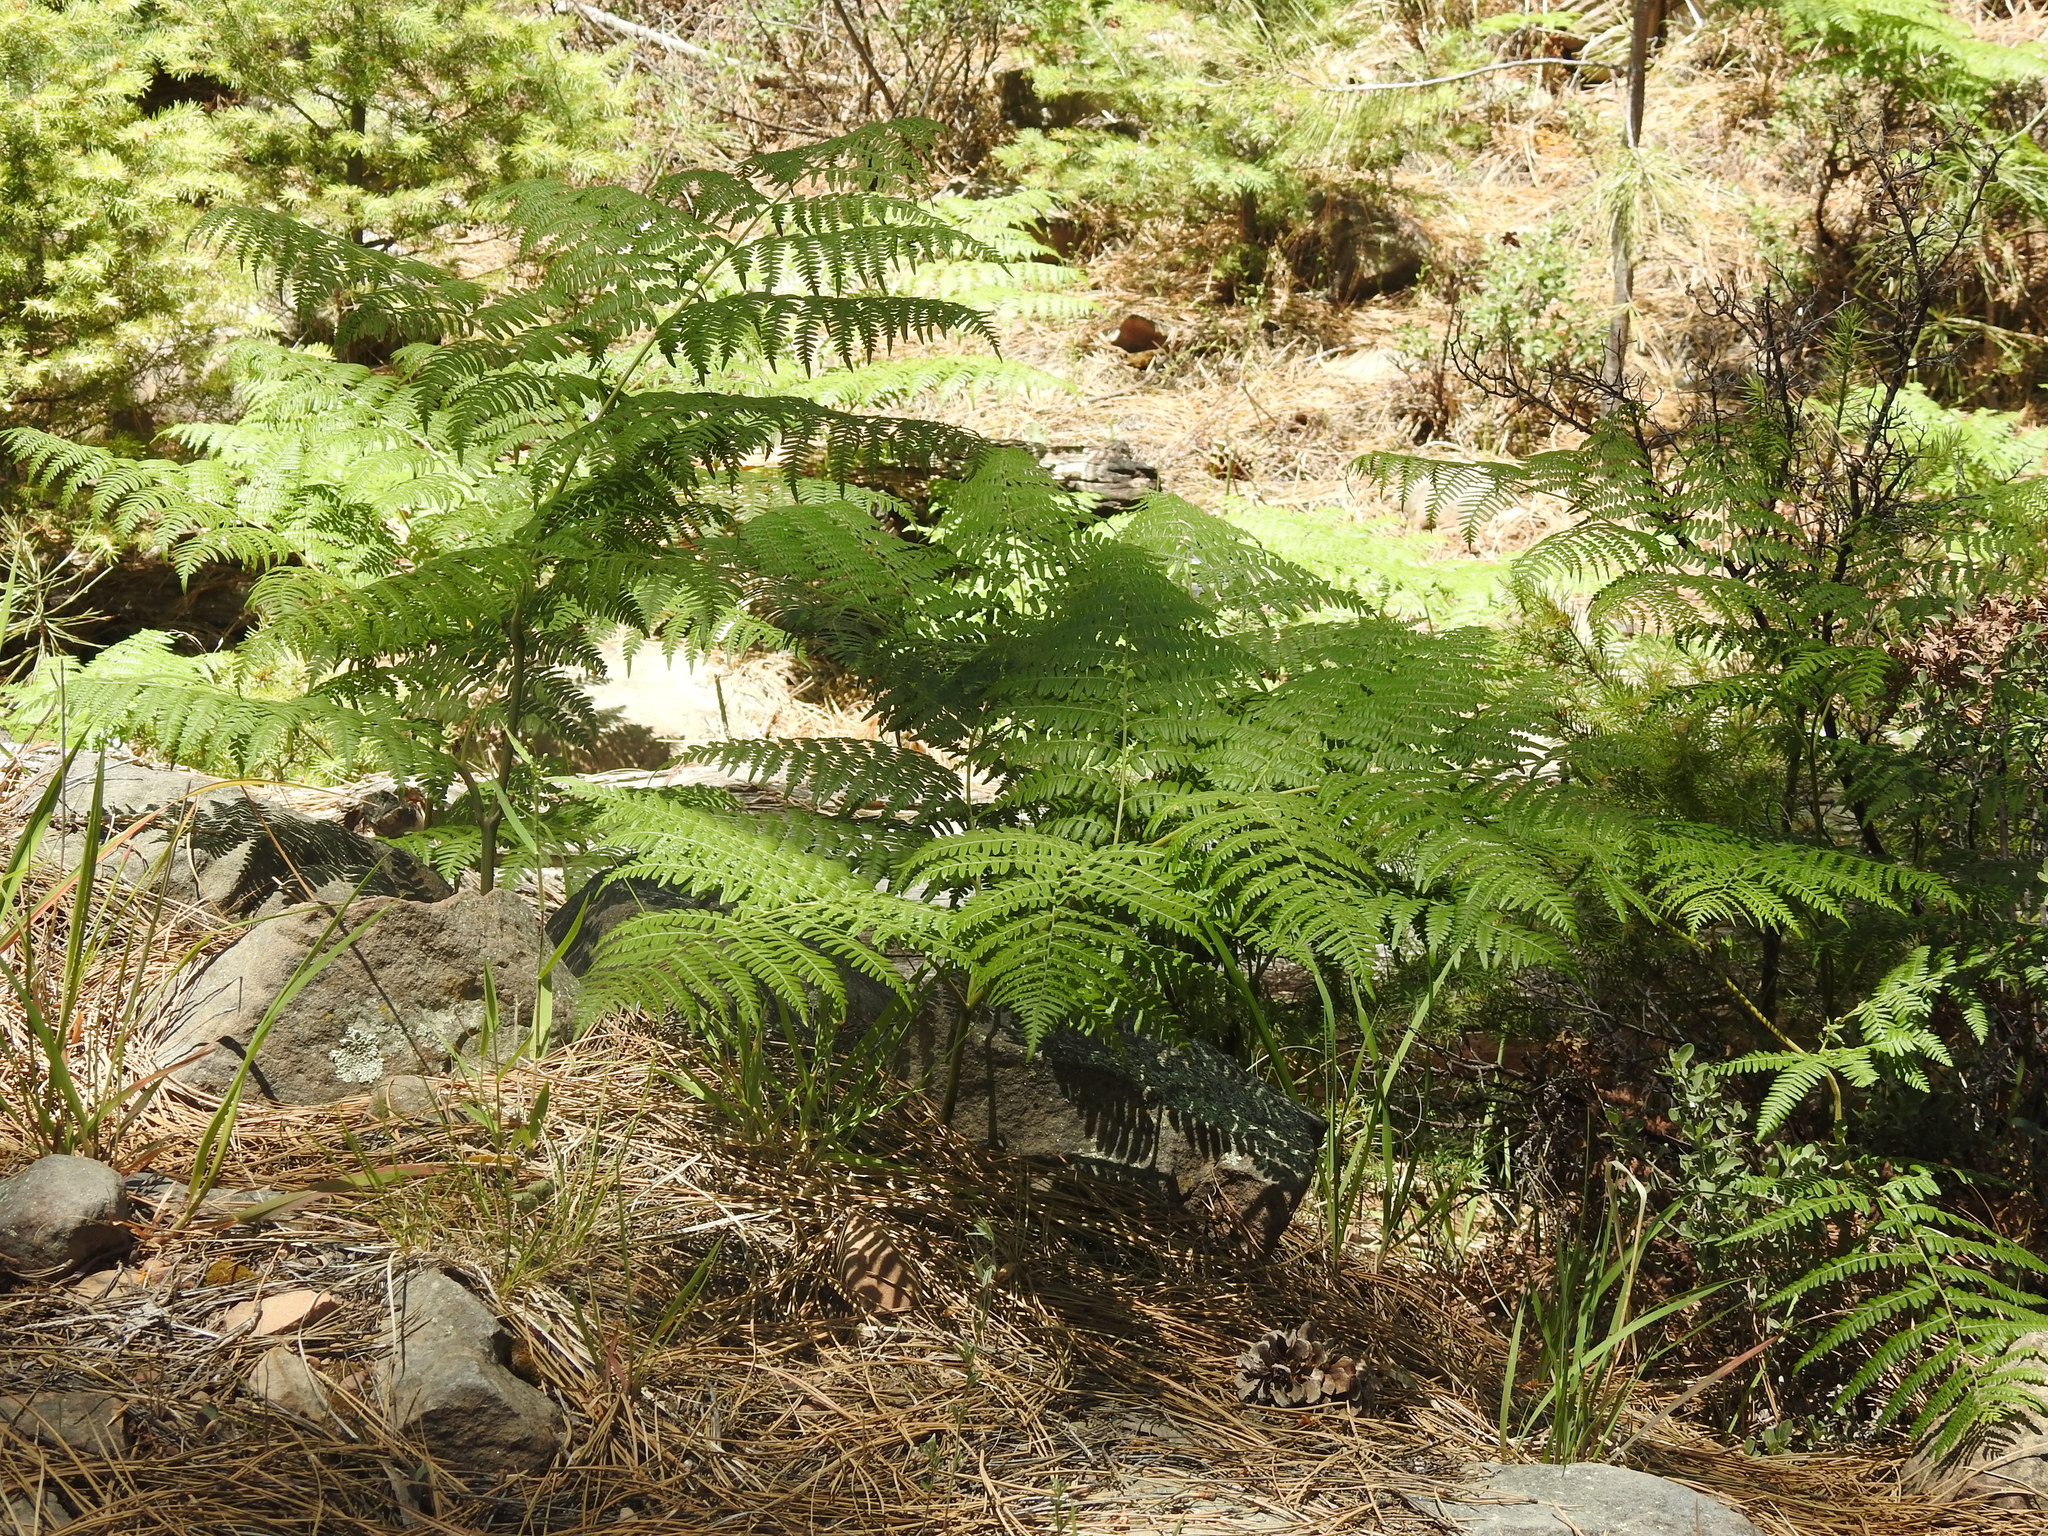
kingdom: Plantae
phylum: Tracheophyta
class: Polypodiopsida
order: Polypodiales
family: Dennstaedtiaceae
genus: Pteridium
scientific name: Pteridium aquilinum
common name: Bracken
